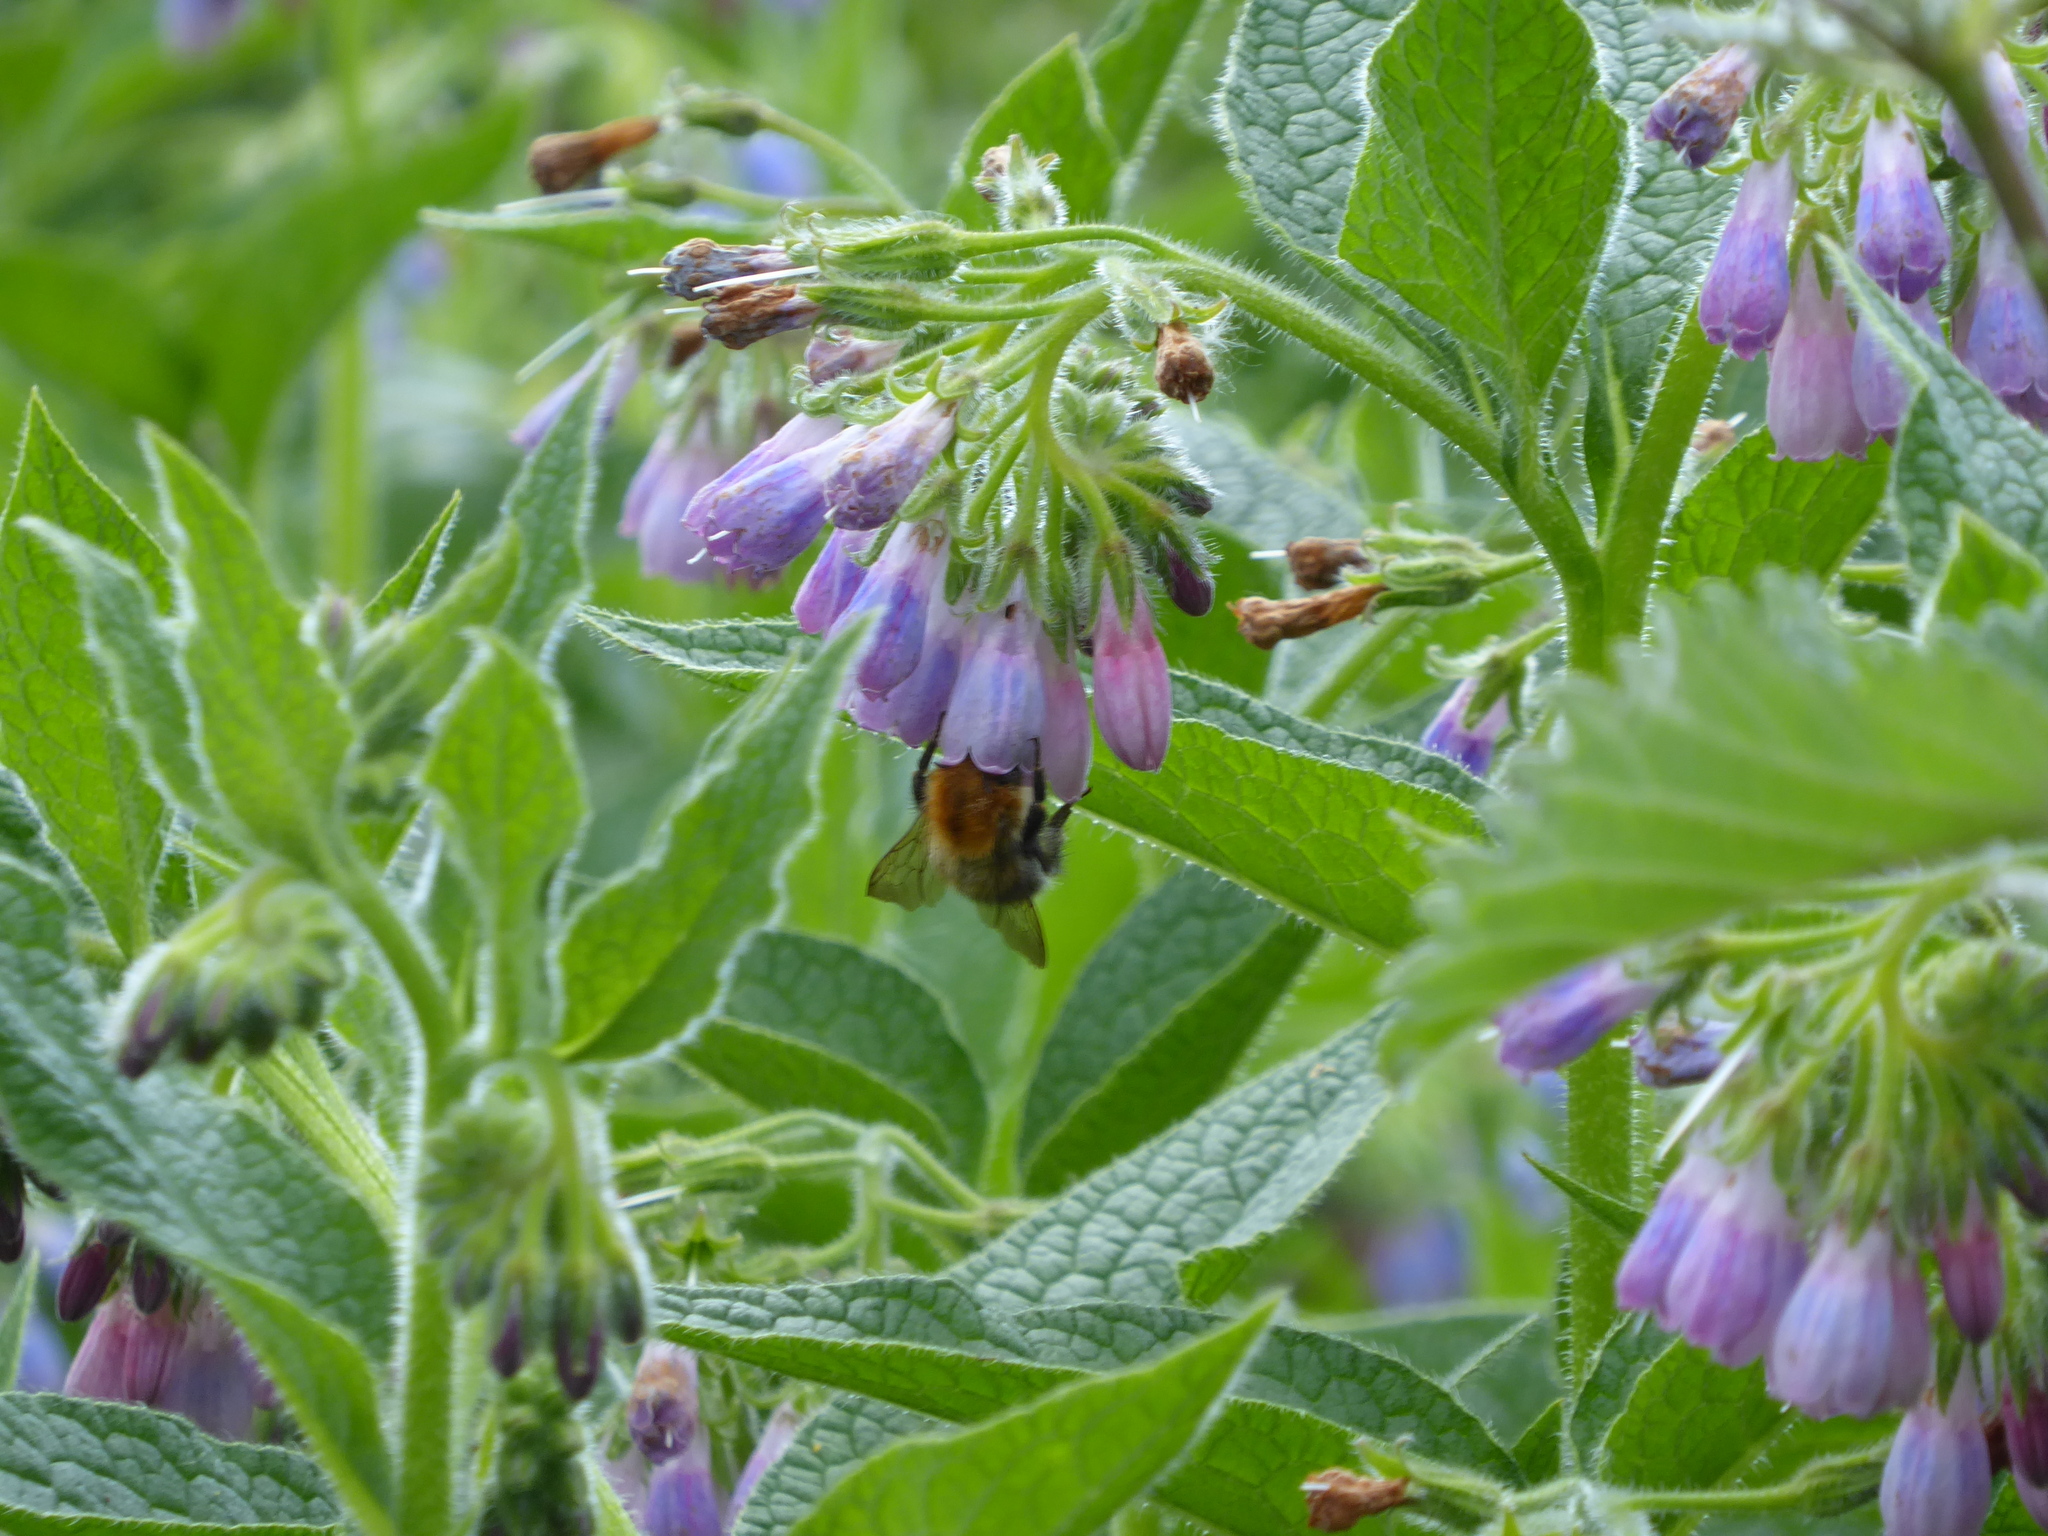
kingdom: Animalia
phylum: Arthropoda
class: Insecta
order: Hymenoptera
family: Apidae
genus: Bombus
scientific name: Bombus pascuorum
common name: Common carder bee
